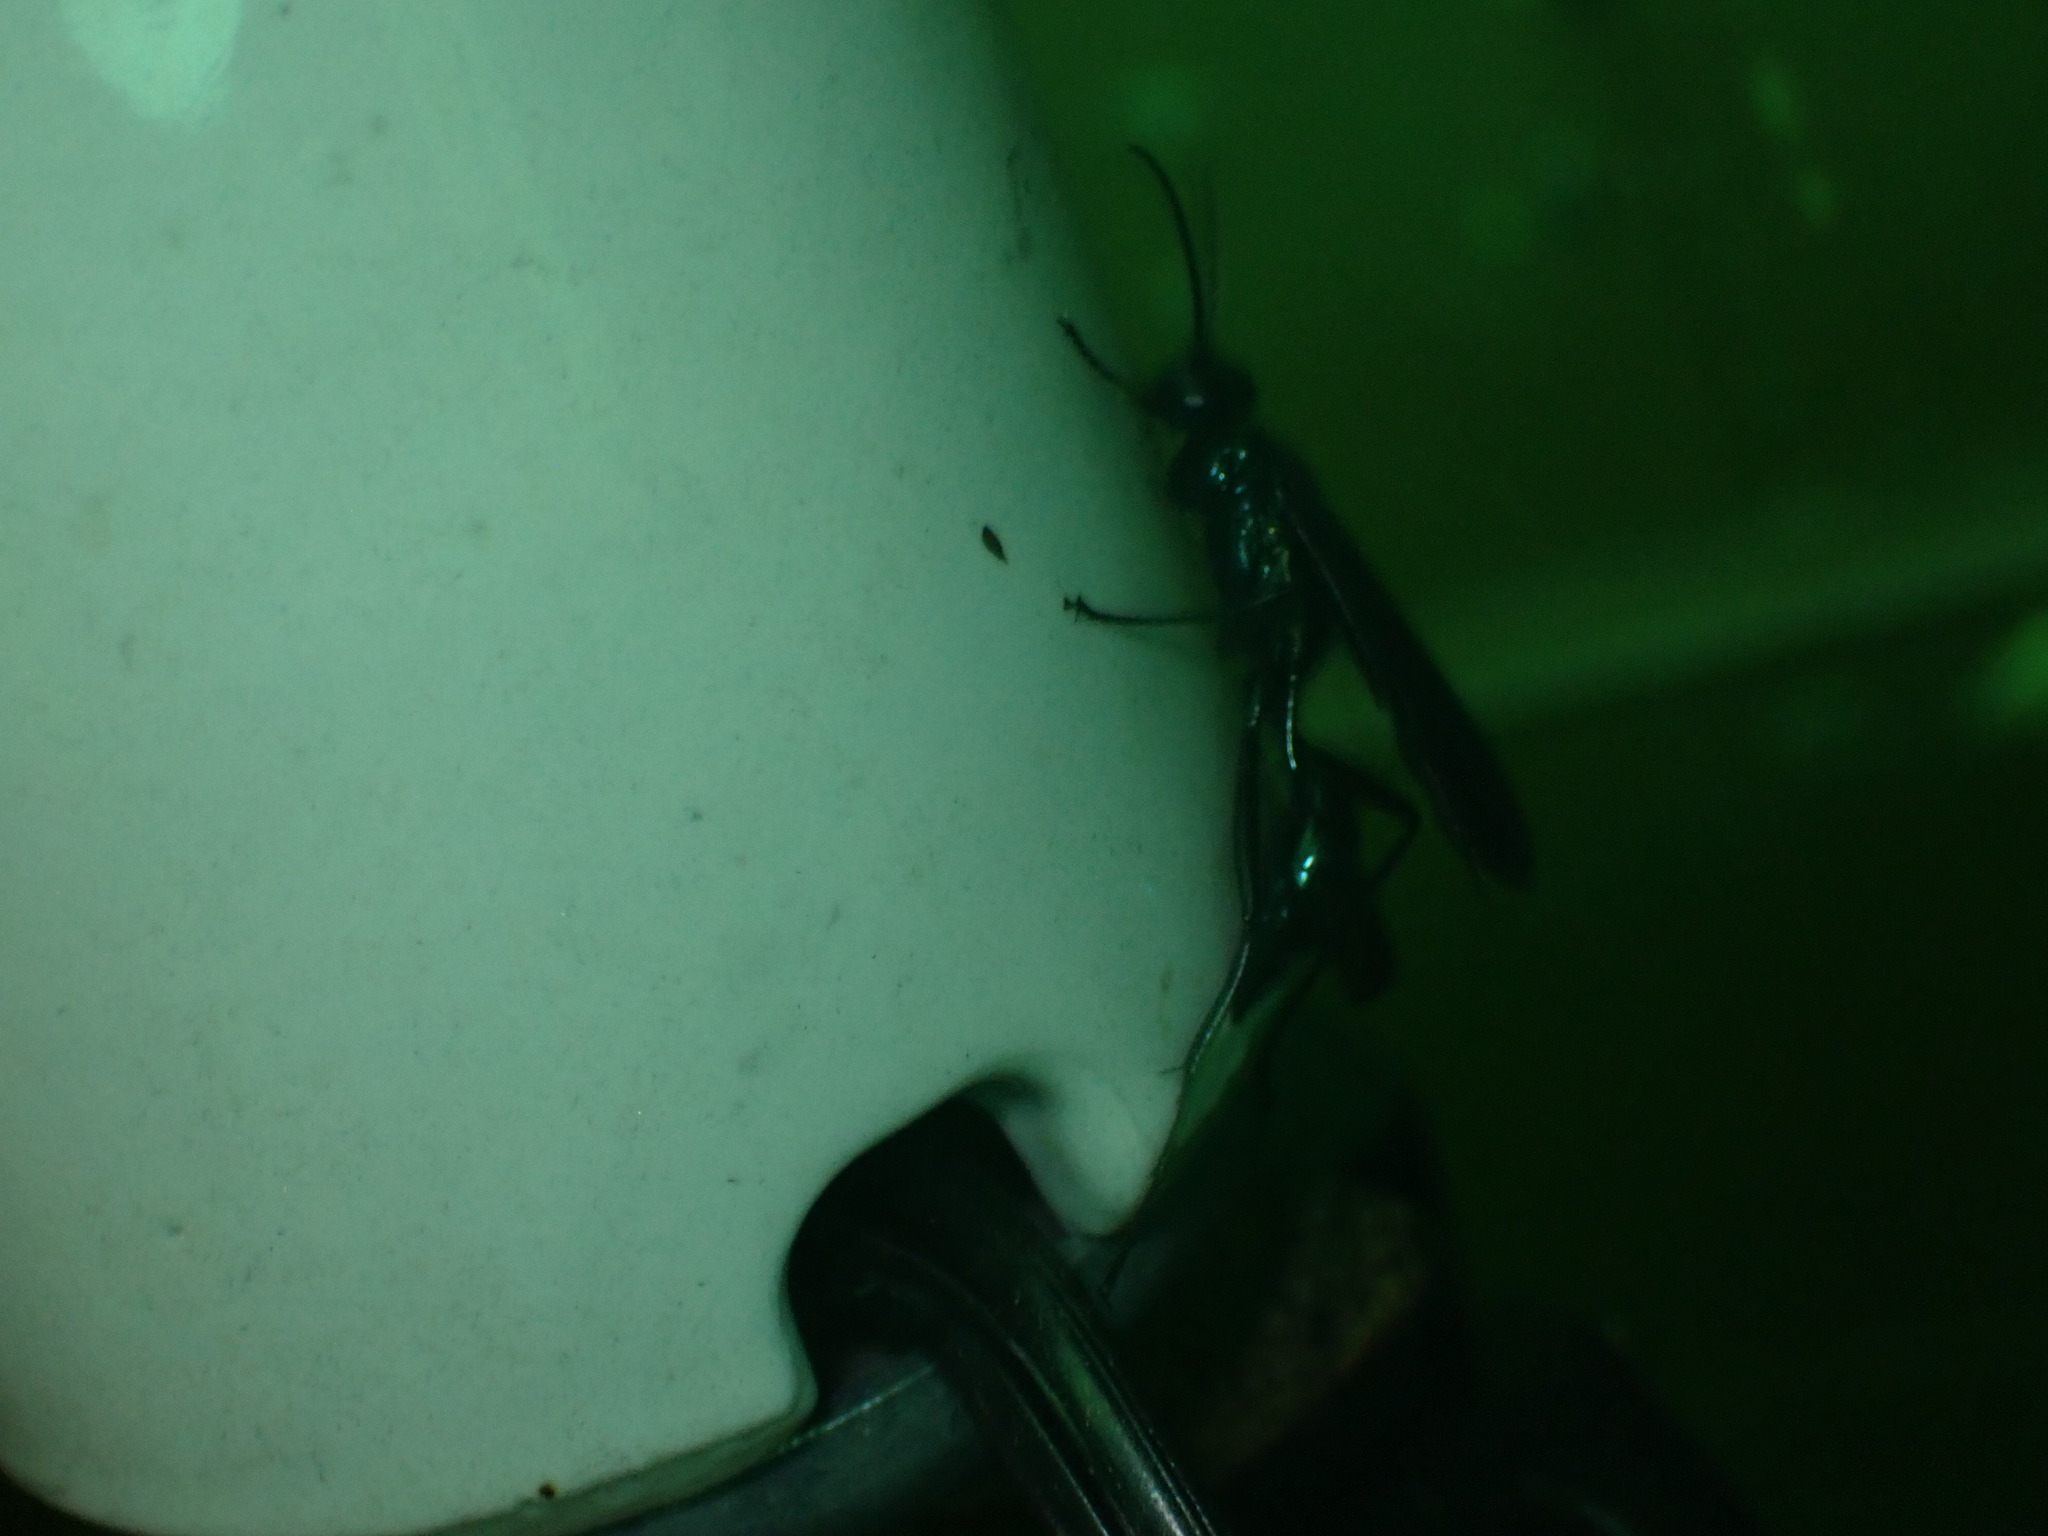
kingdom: Animalia
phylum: Arthropoda
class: Insecta
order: Hymenoptera
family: Sphecidae
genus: Chalybion
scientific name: Chalybion californicum
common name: Mud dauber
